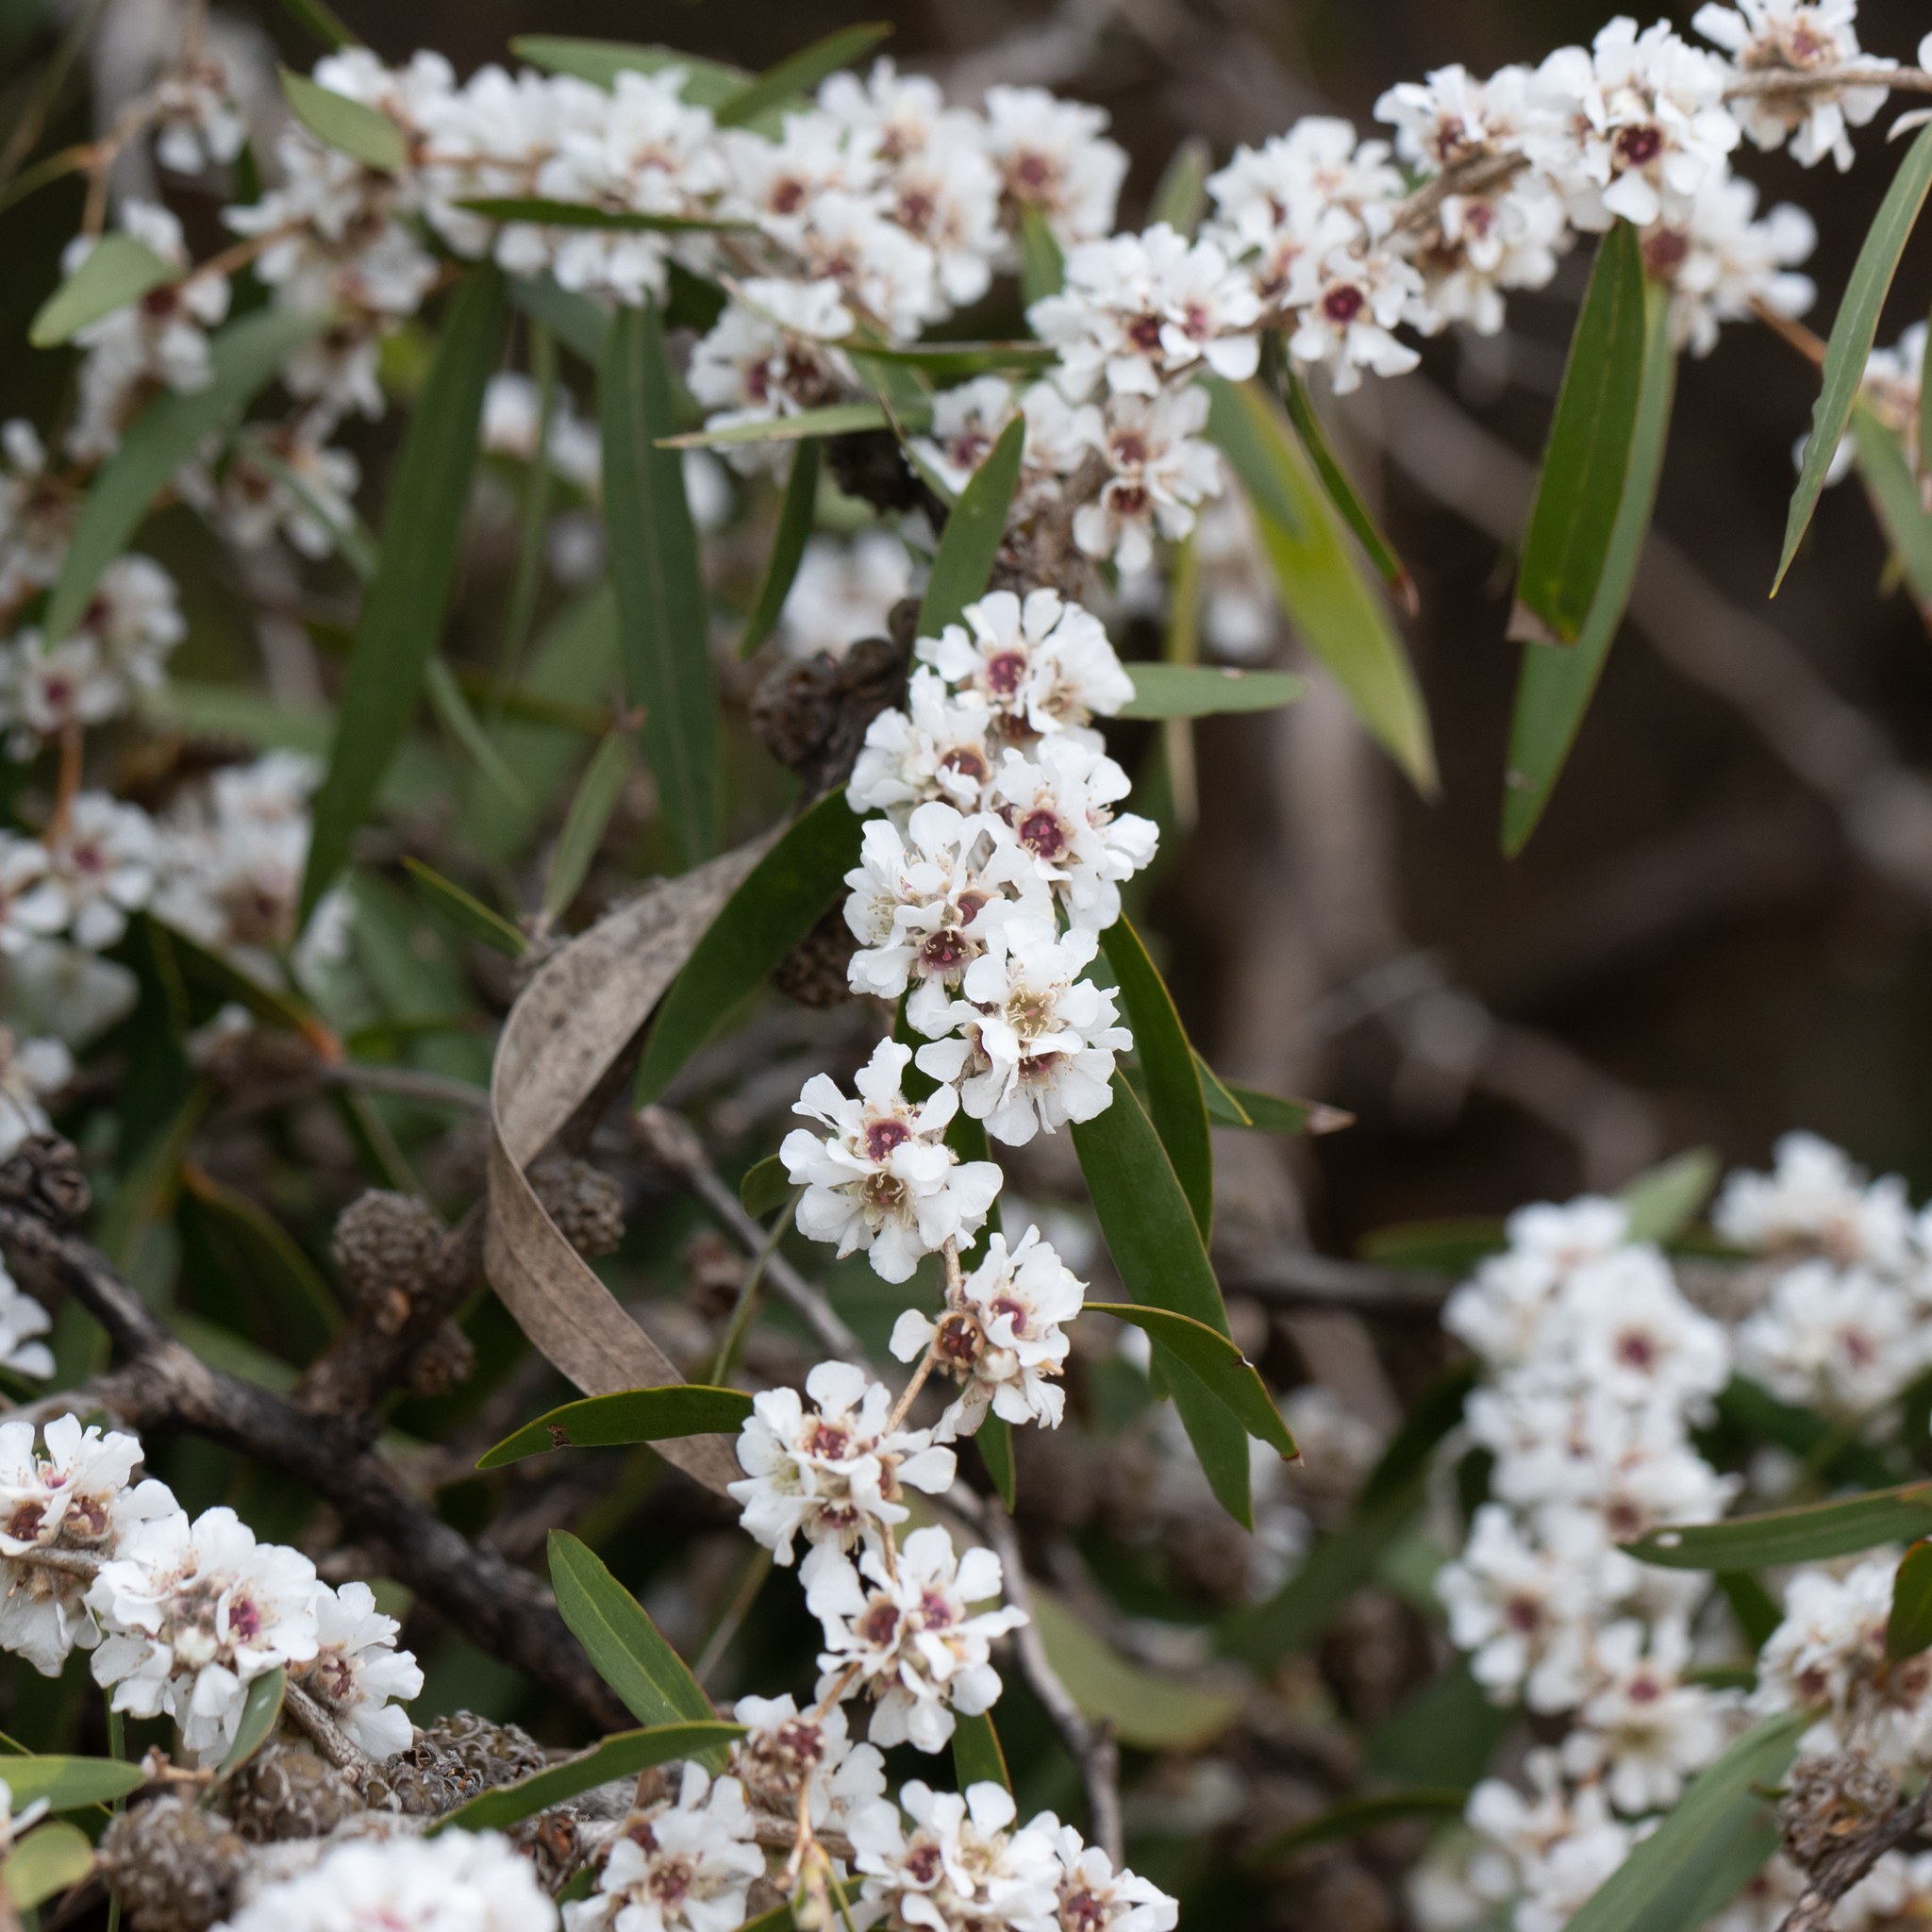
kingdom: Plantae
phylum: Tracheophyta
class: Magnoliopsida
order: Myrtales
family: Myrtaceae
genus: Agonis
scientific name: Agonis flexuosa
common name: Willow myrtle
